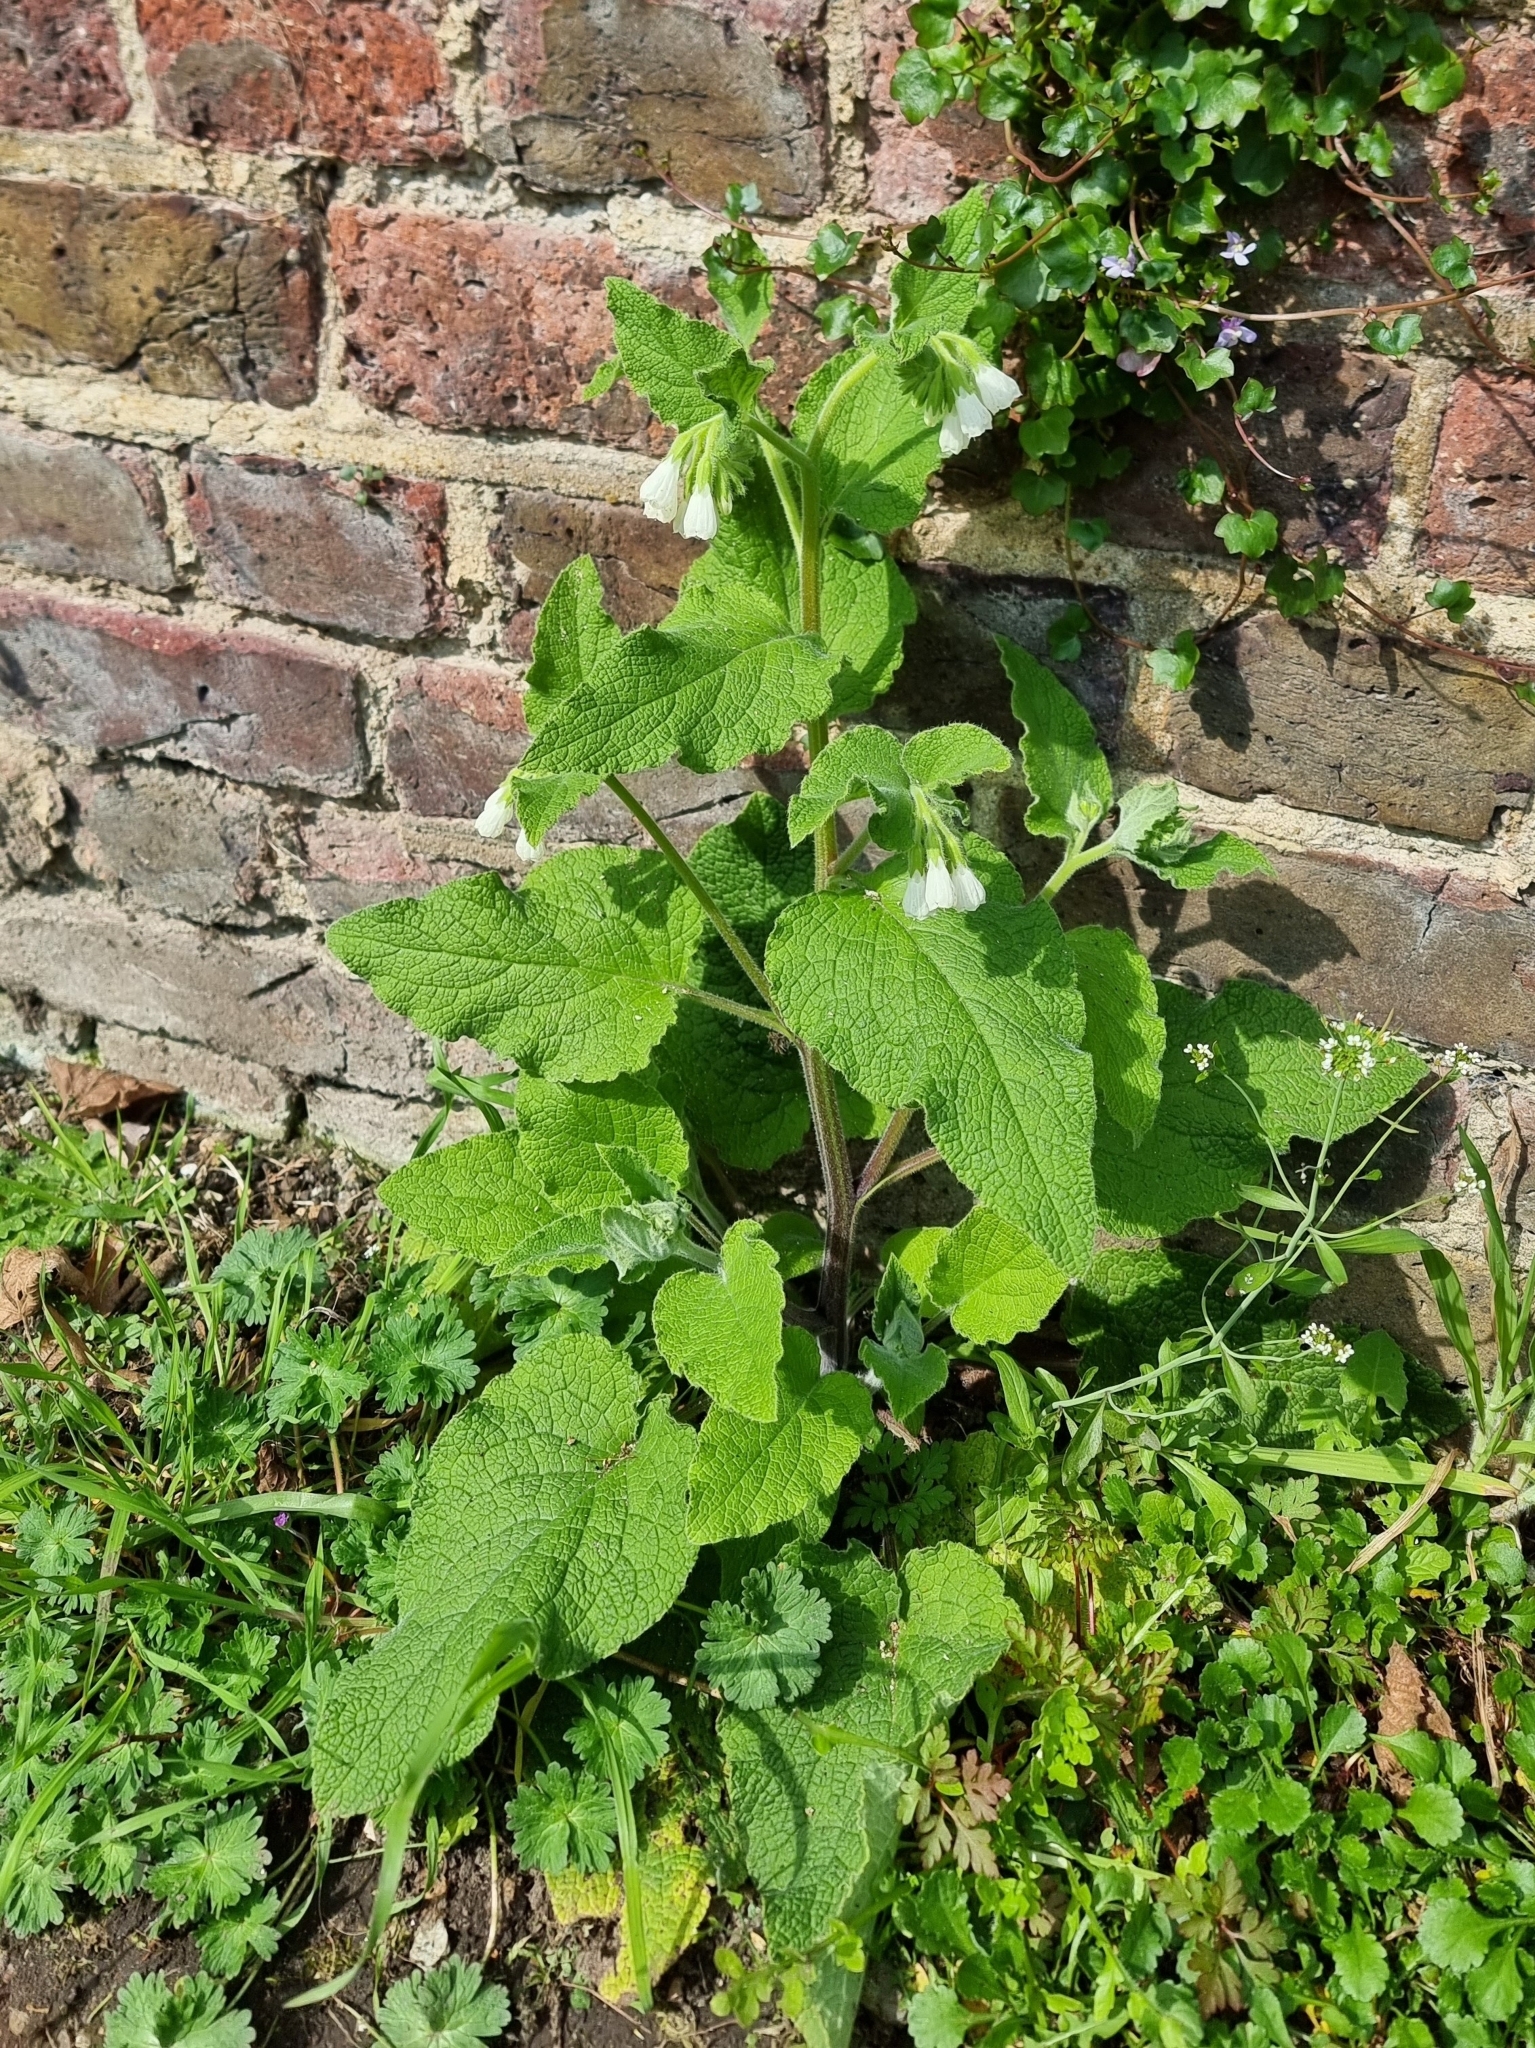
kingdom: Plantae
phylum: Tracheophyta
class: Magnoliopsida
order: Boraginales
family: Boraginaceae
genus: Symphytum
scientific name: Symphytum orientale
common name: White comfrey
